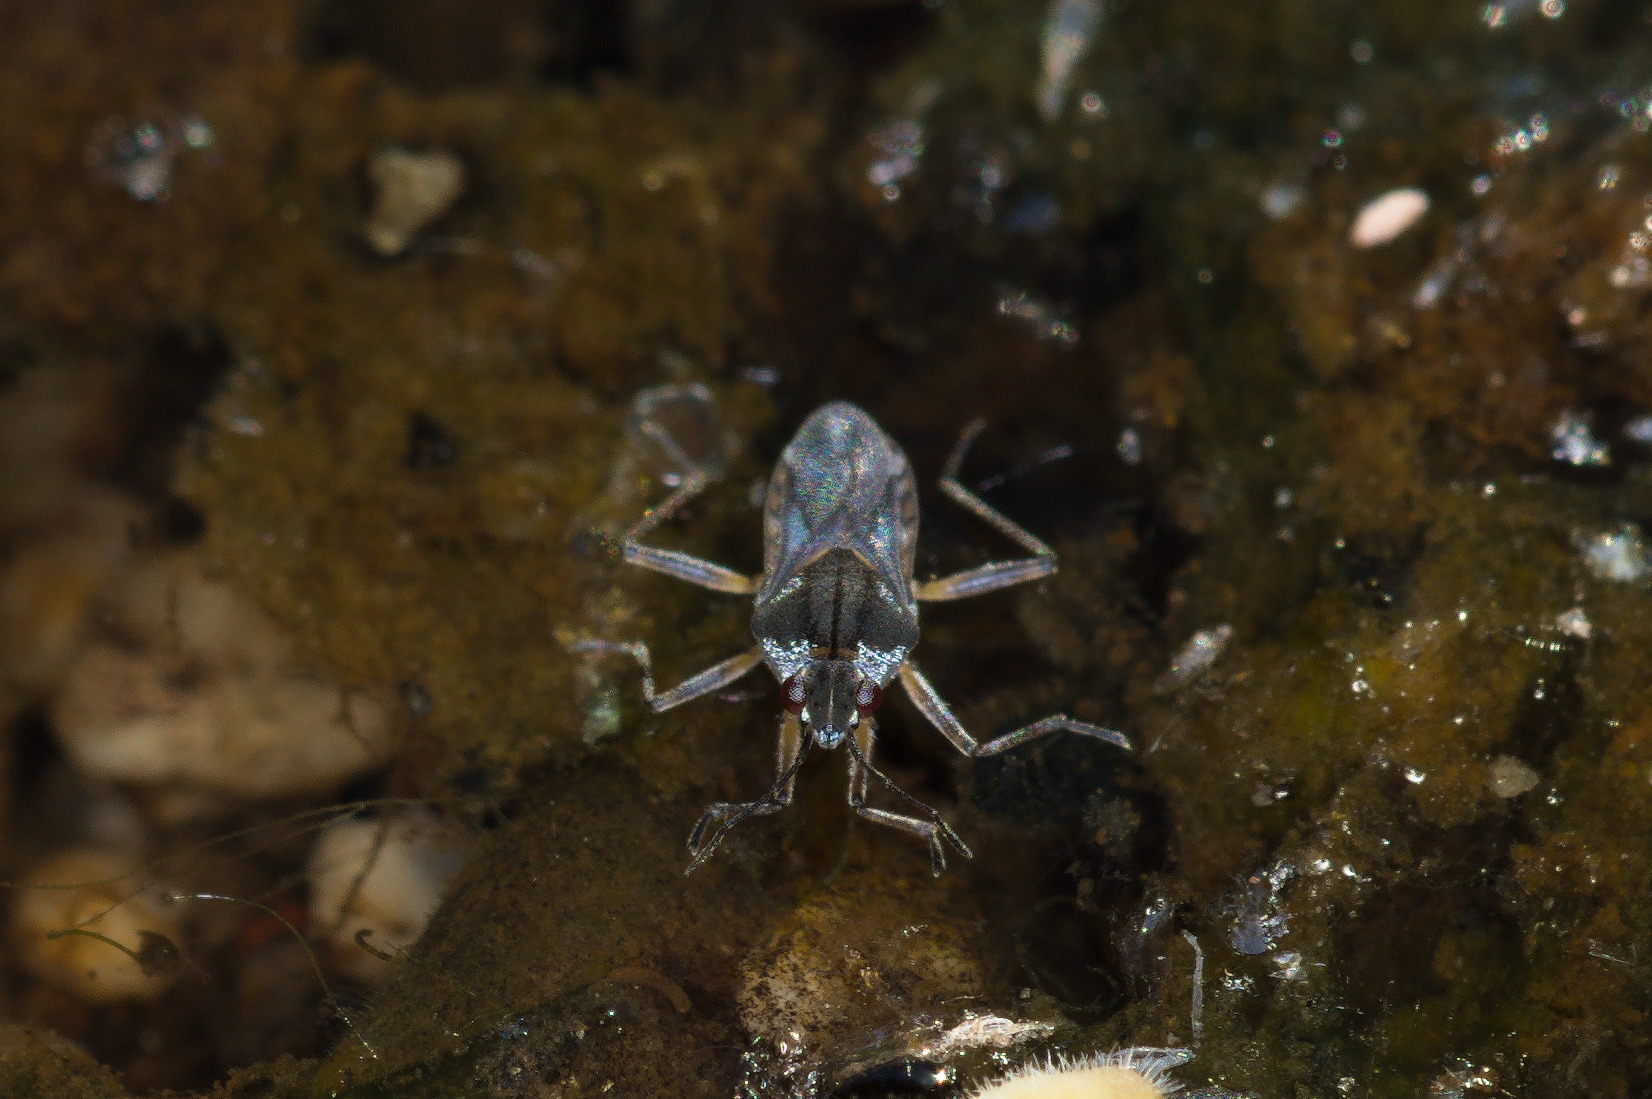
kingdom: Animalia
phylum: Arthropoda
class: Insecta
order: Hemiptera
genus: Kirkaldya
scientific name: Kirkaldya
